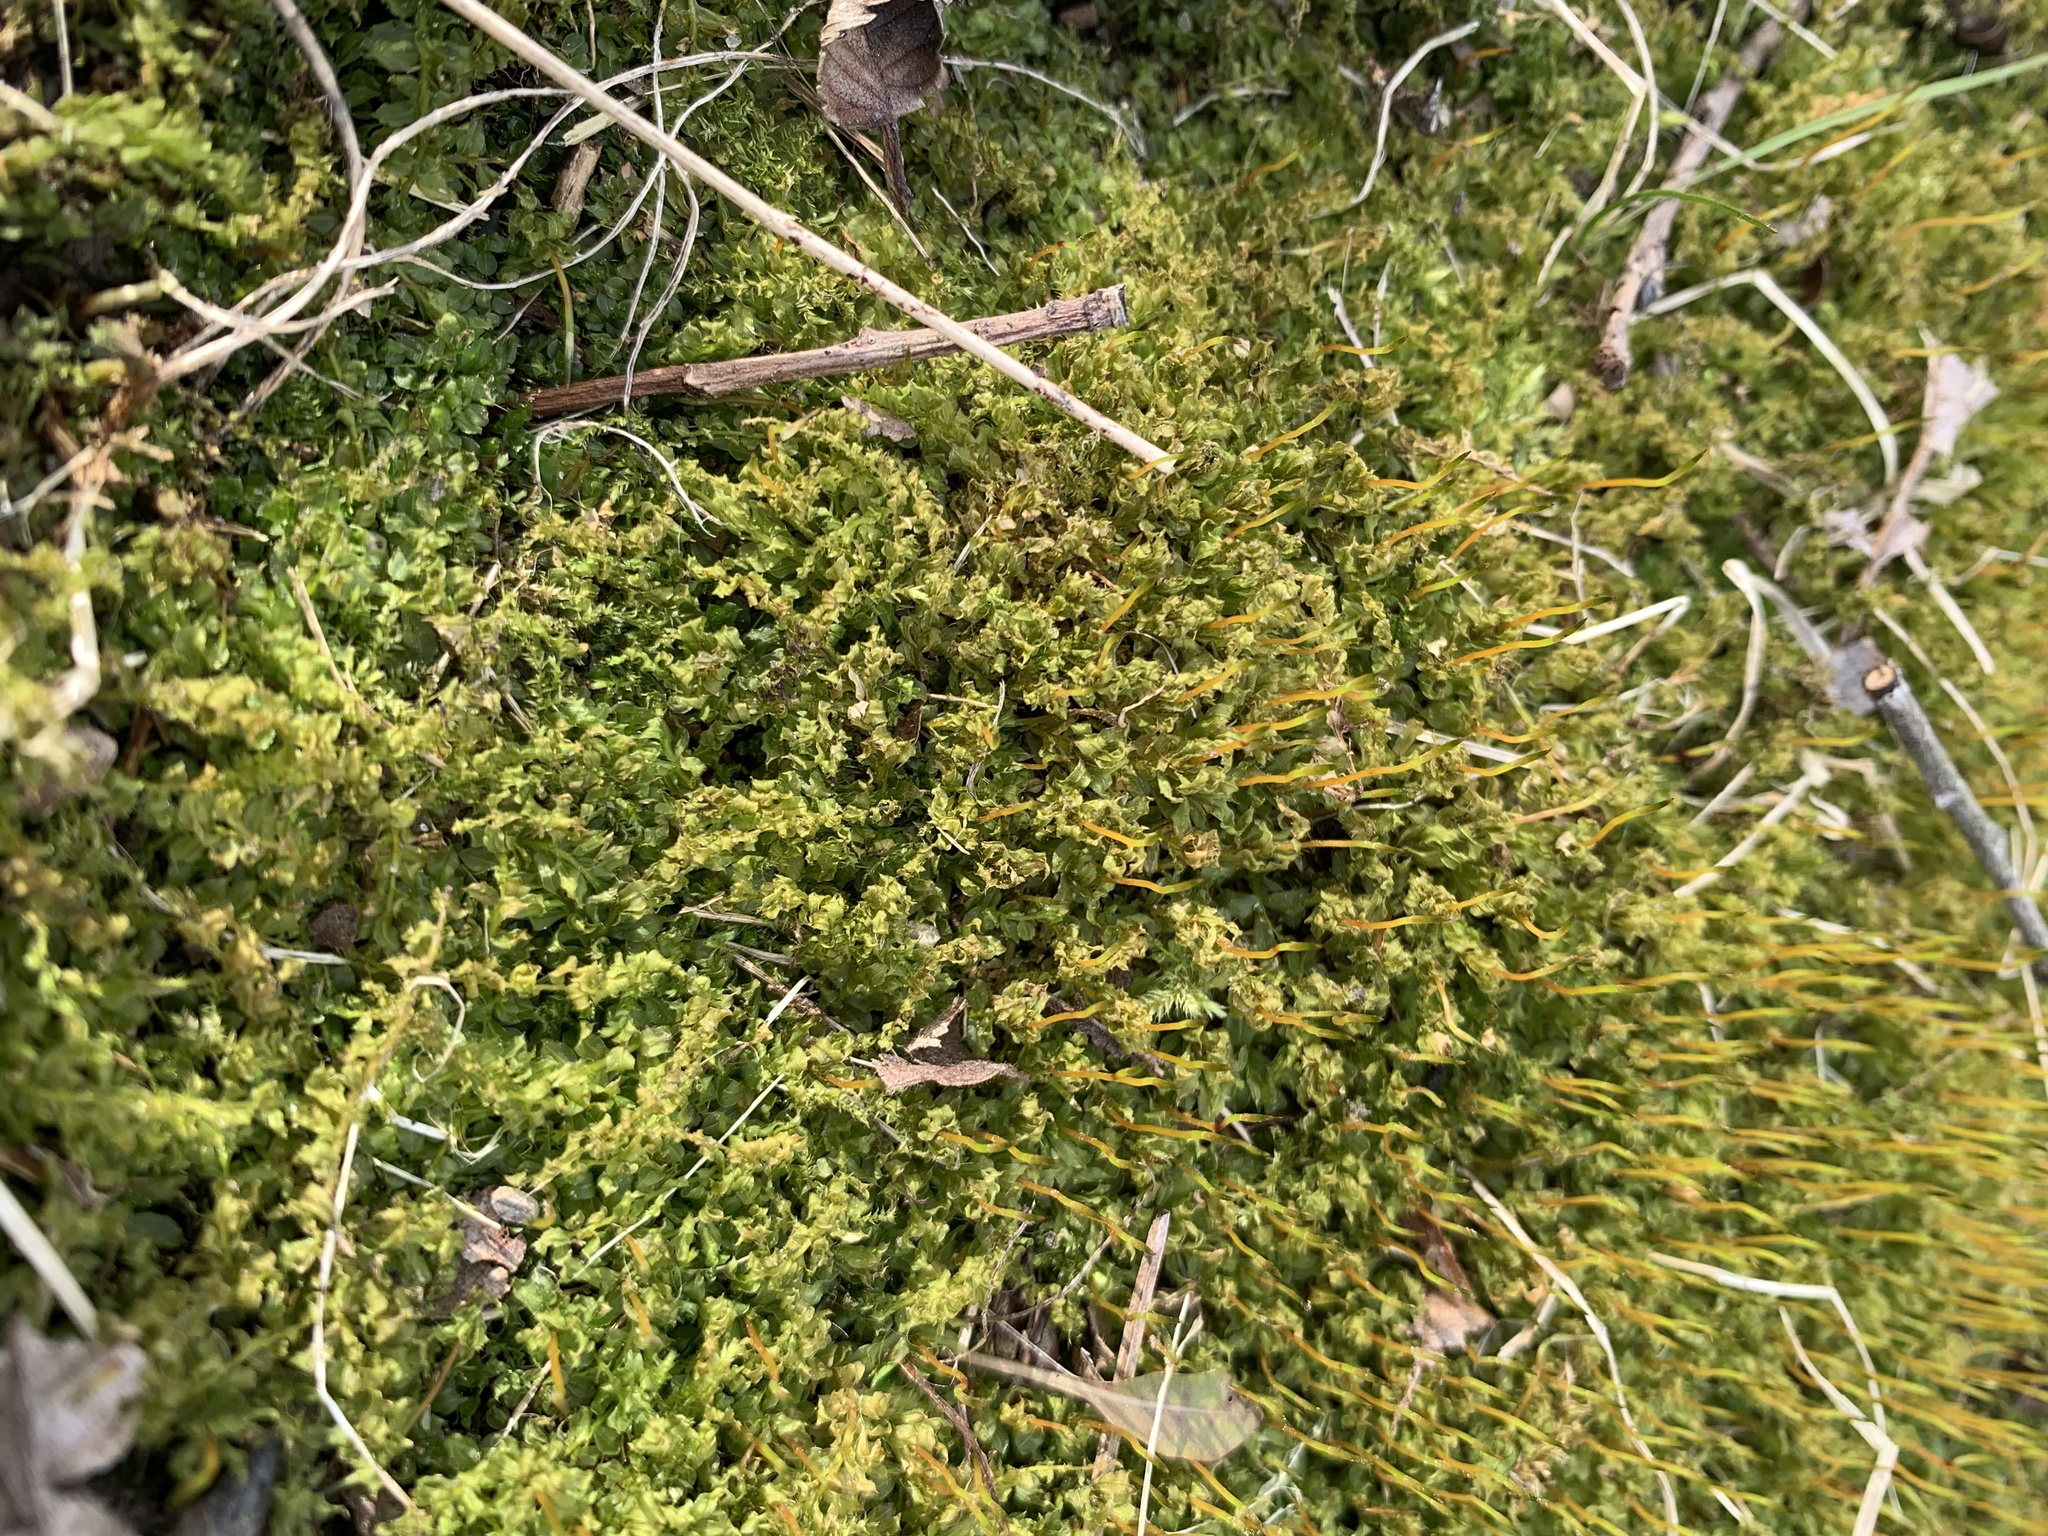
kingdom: Plantae
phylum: Bryophyta
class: Bryopsida
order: Bryales
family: Mniaceae
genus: Plagiomnium
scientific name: Plagiomnium cuspidatum
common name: Woodsy leafy moss
